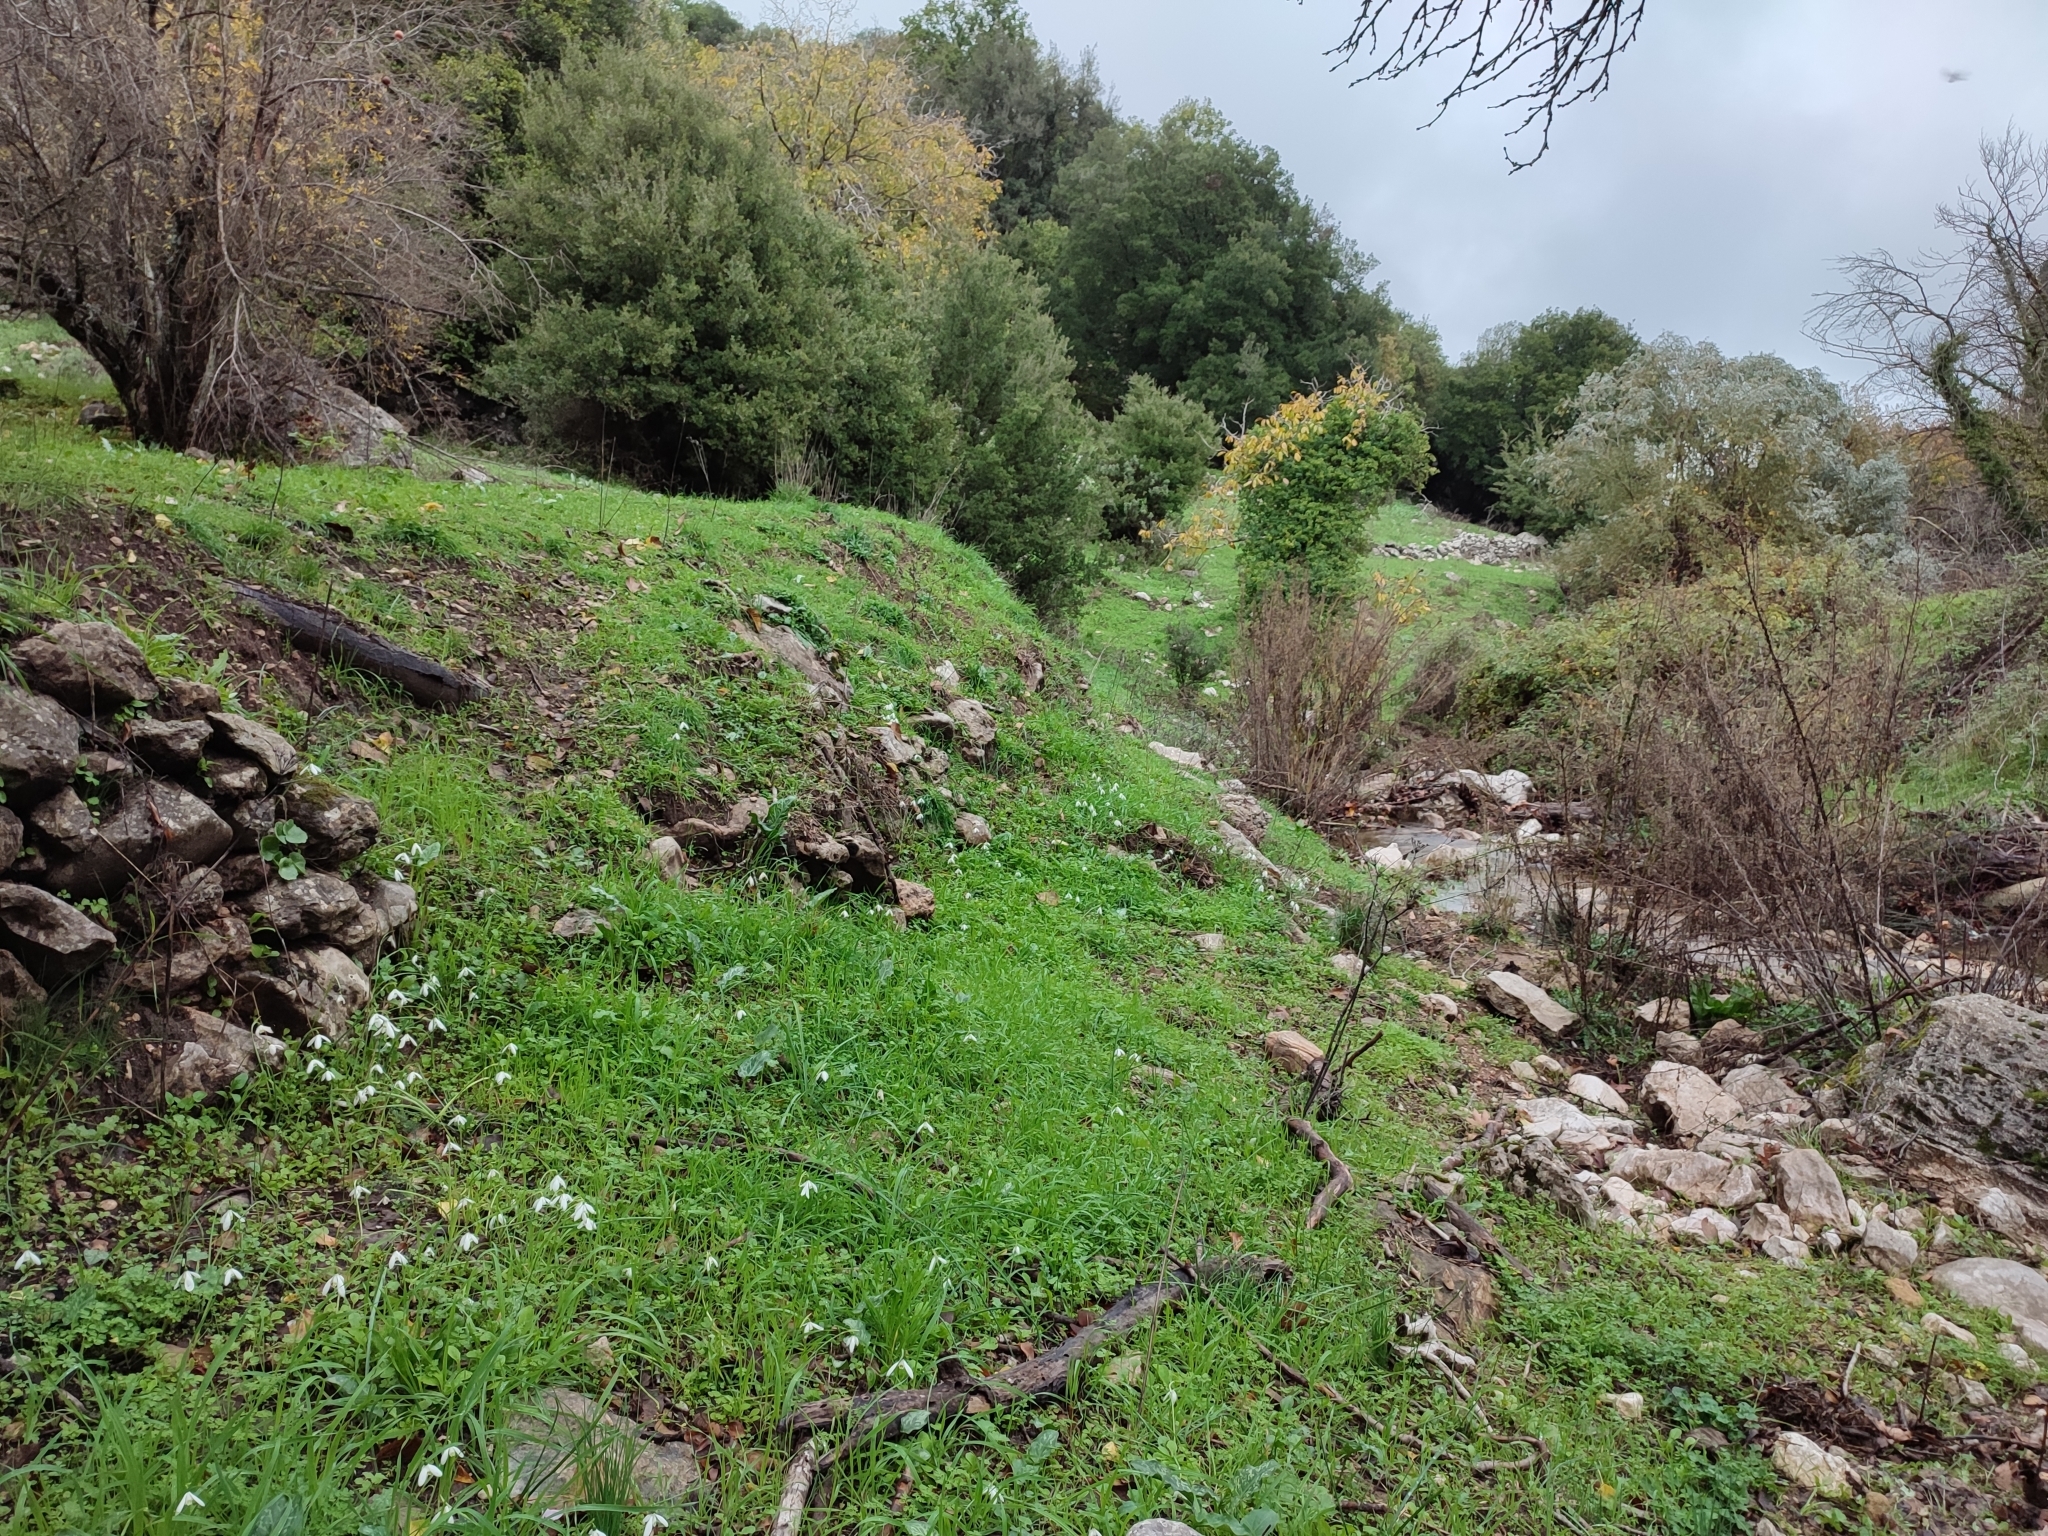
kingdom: Plantae
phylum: Tracheophyta
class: Liliopsida
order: Asparagales
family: Amaryllidaceae
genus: Galanthus
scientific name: Galanthus reginae-olgae
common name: Queen olga's snowdrop
